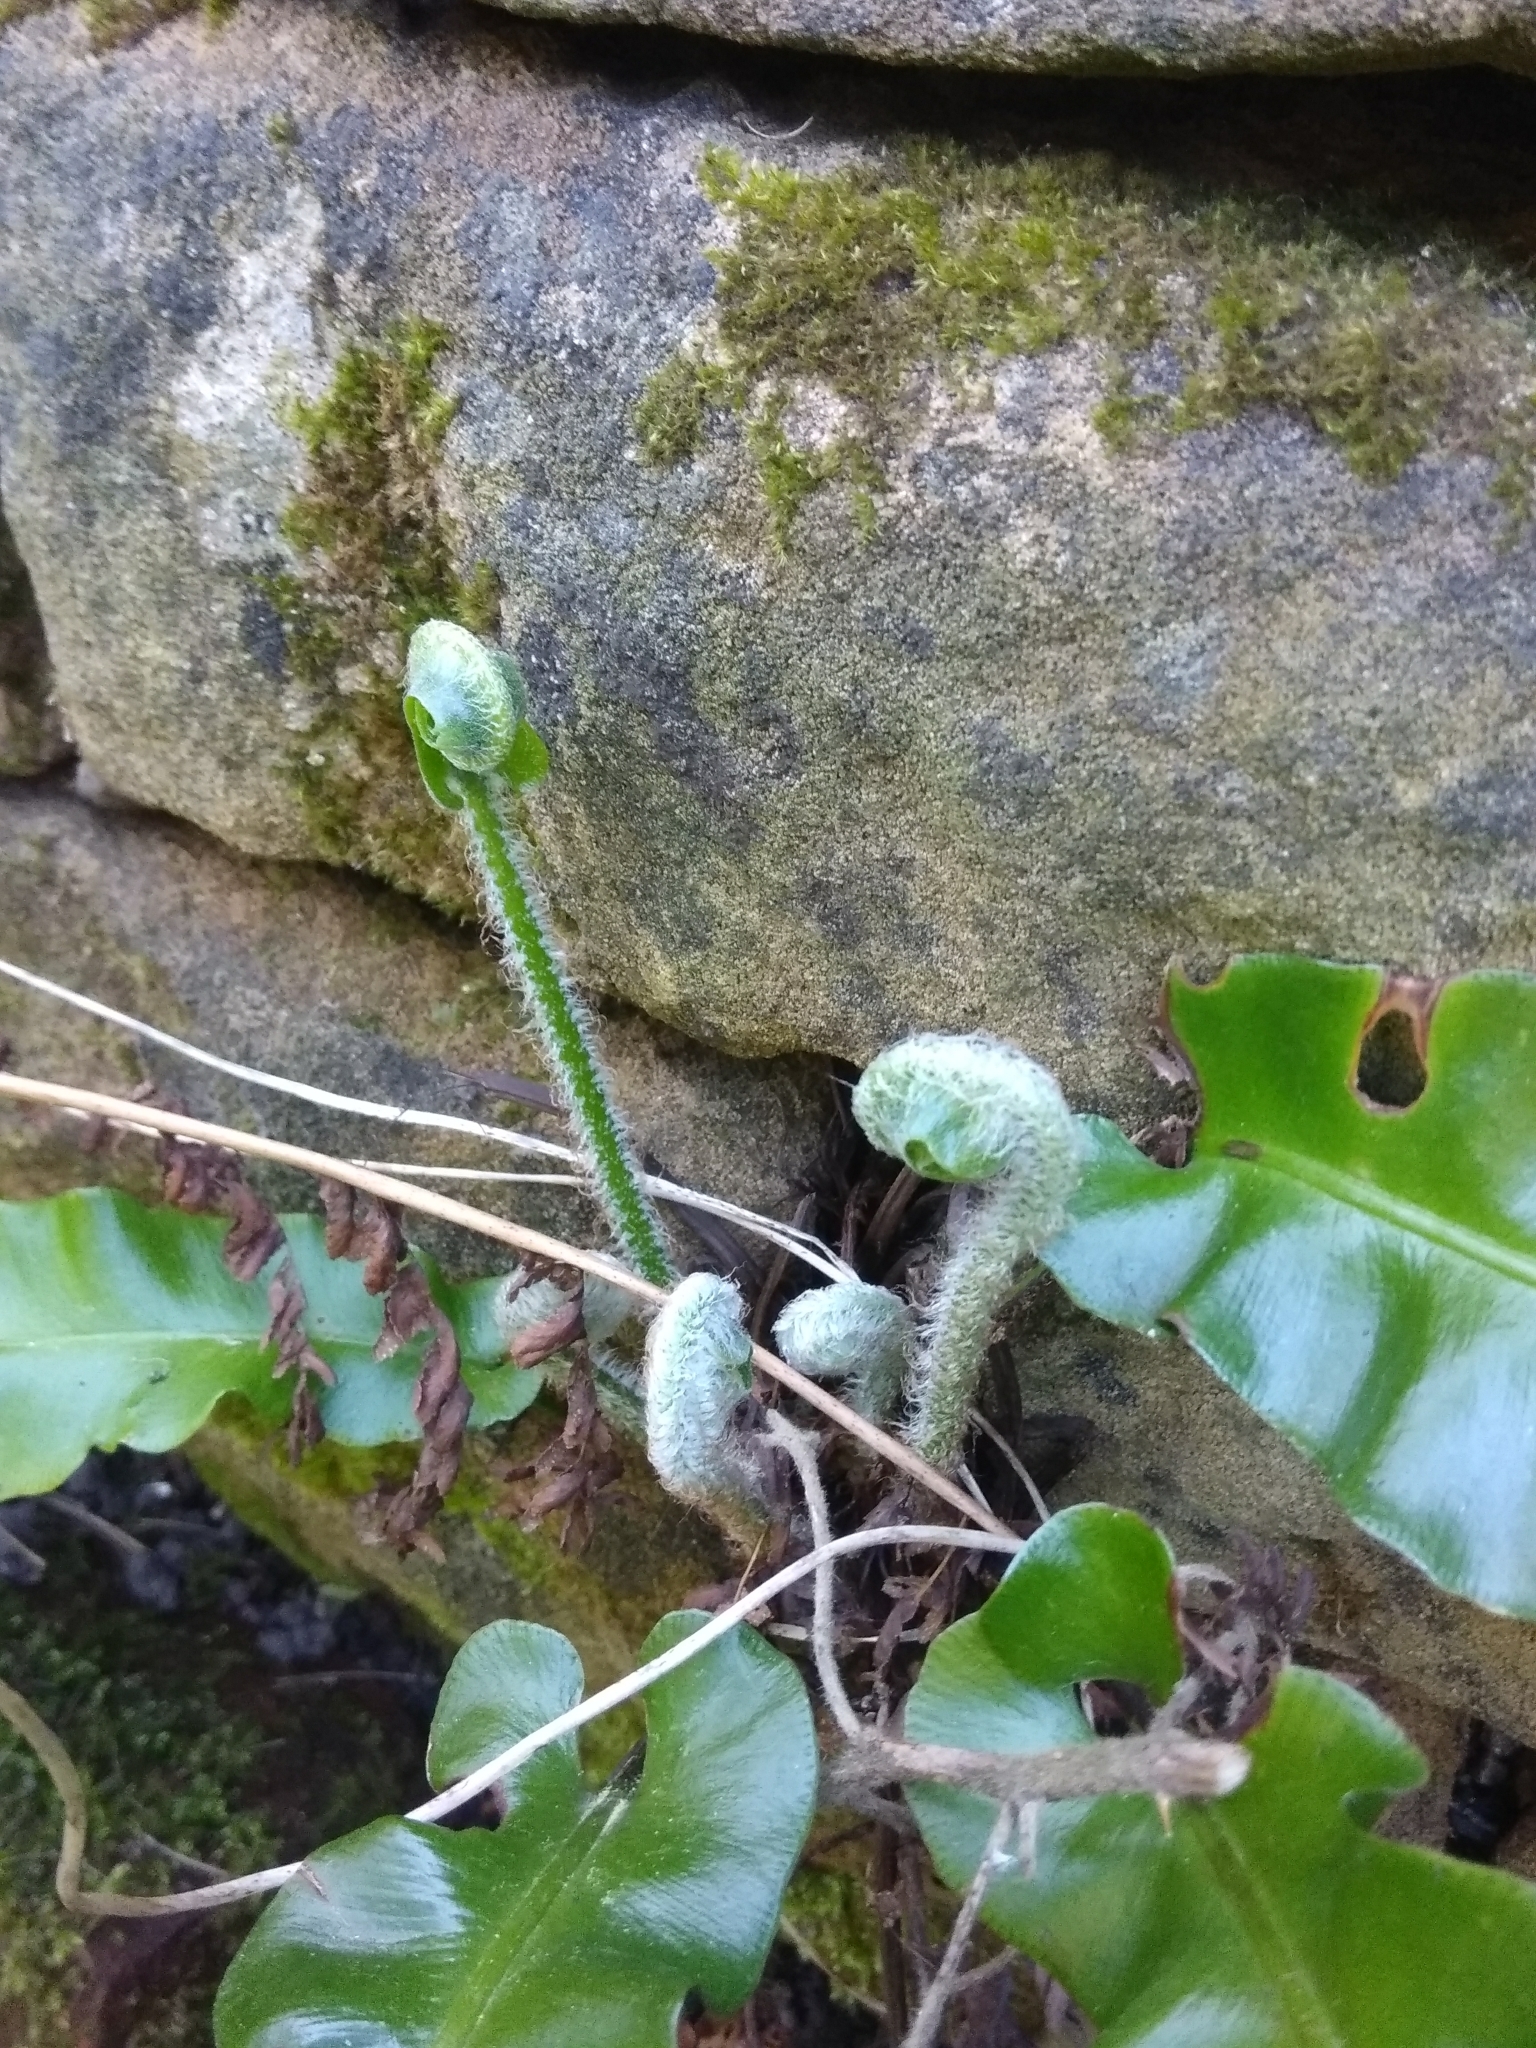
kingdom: Plantae
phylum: Tracheophyta
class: Polypodiopsida
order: Polypodiales
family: Aspleniaceae
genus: Asplenium
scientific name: Asplenium scolopendrium
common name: Hart's-tongue fern
